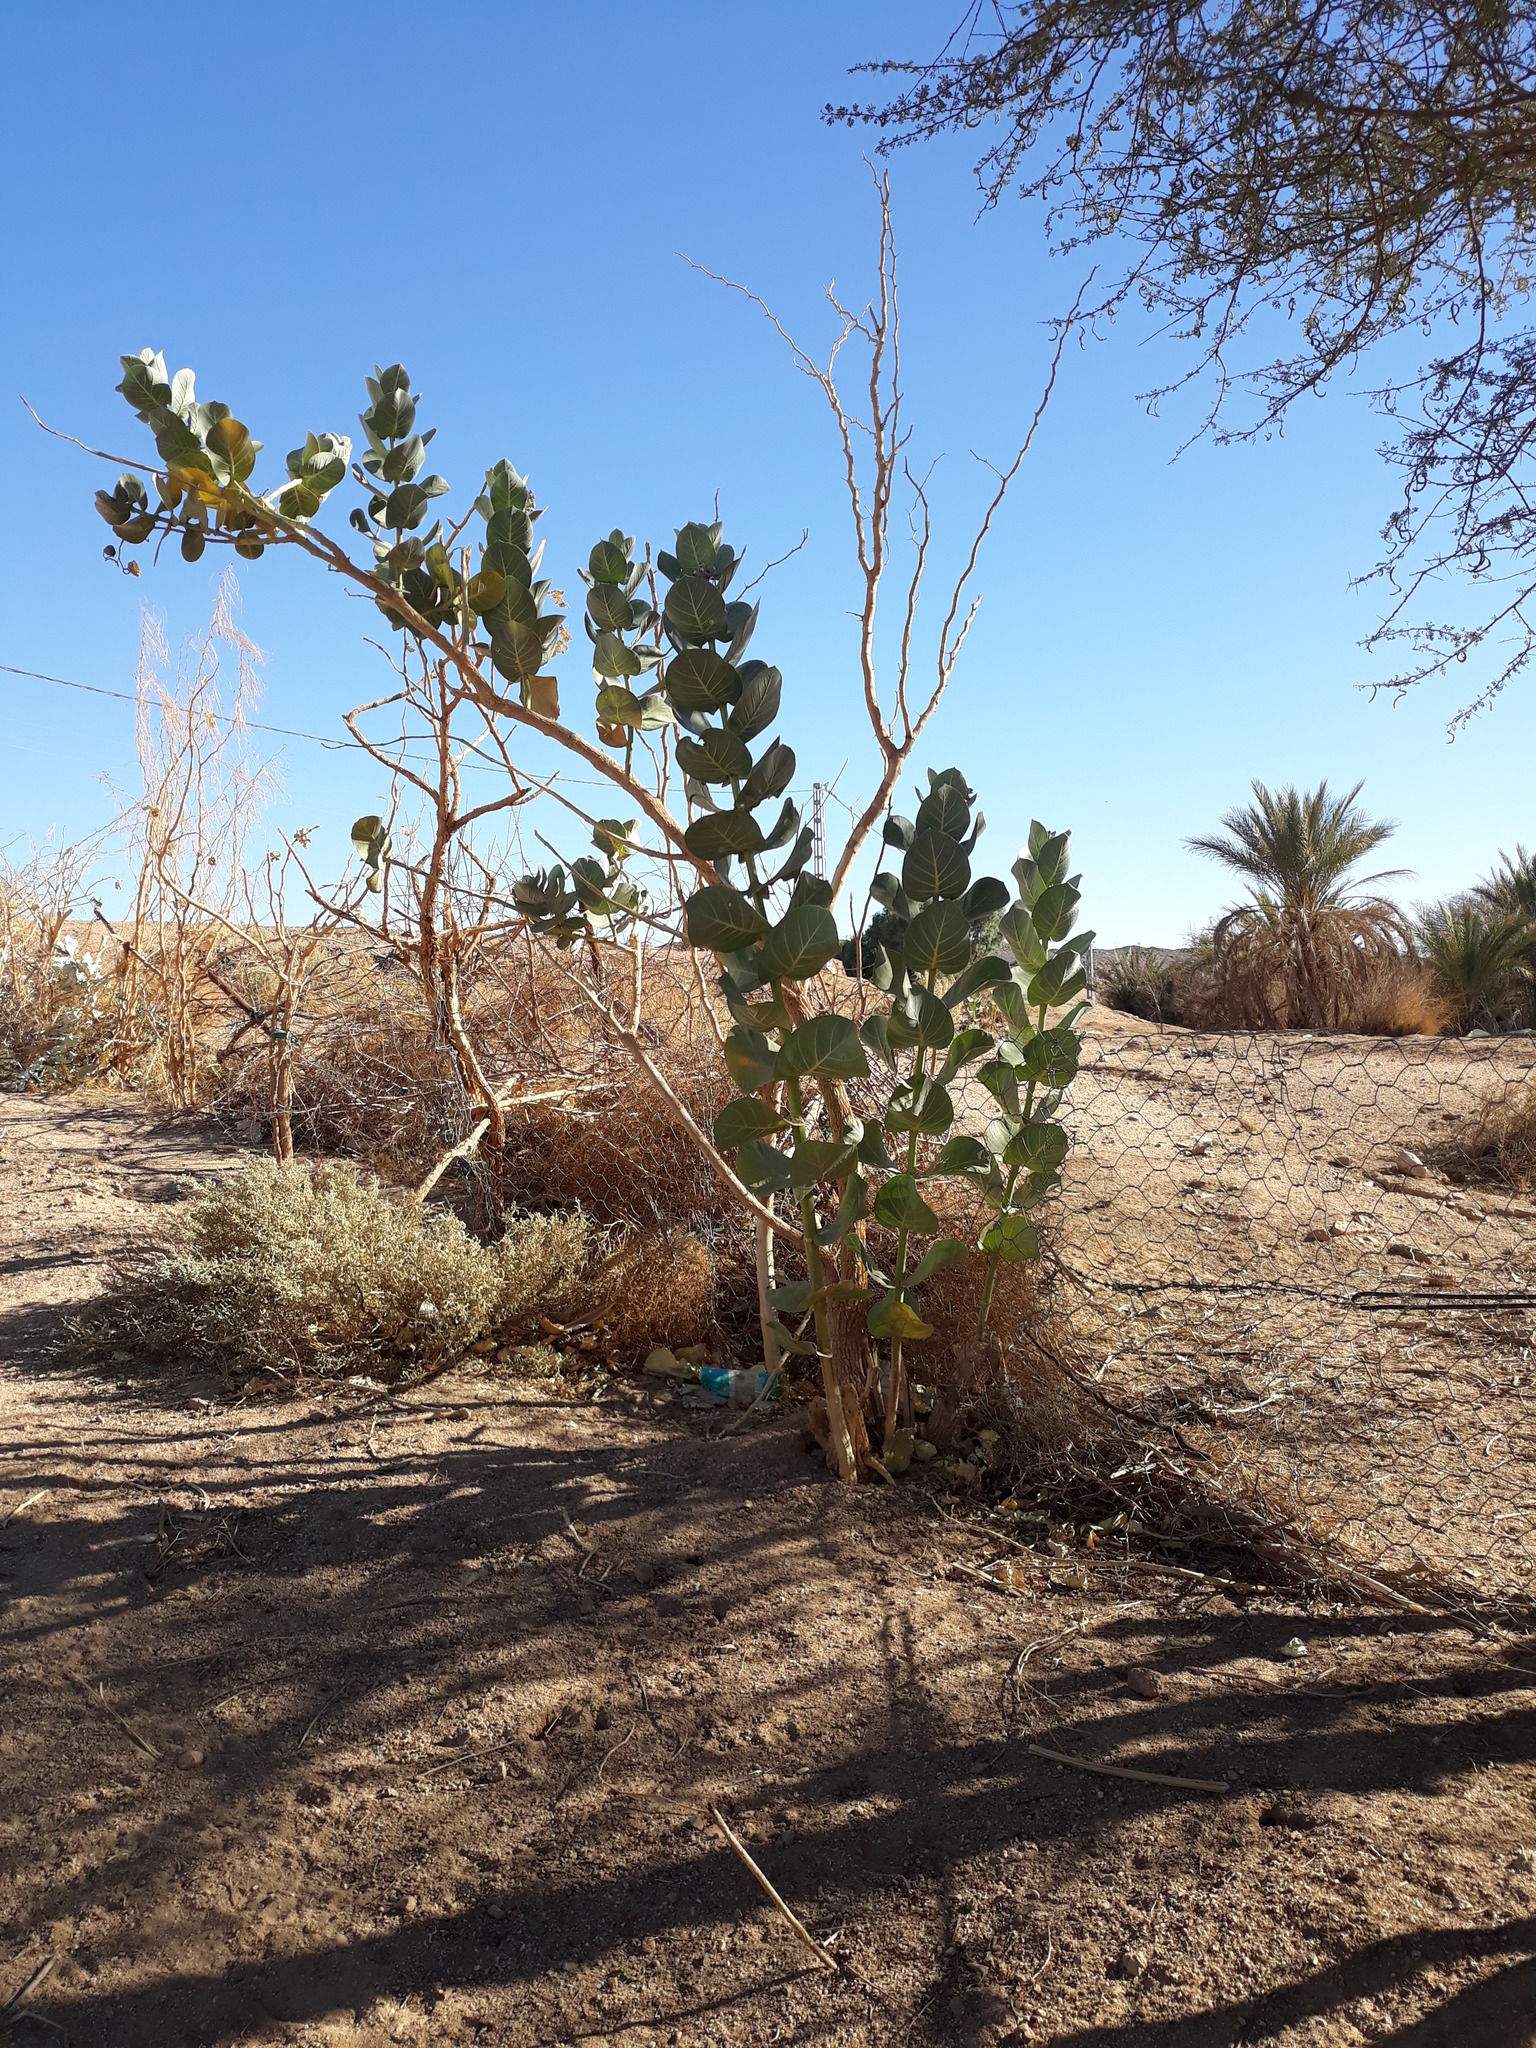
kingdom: Plantae
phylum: Tracheophyta
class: Magnoliopsida
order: Gentianales
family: Apocynaceae
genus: Calotropis
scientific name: Calotropis procera
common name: Roostertree
